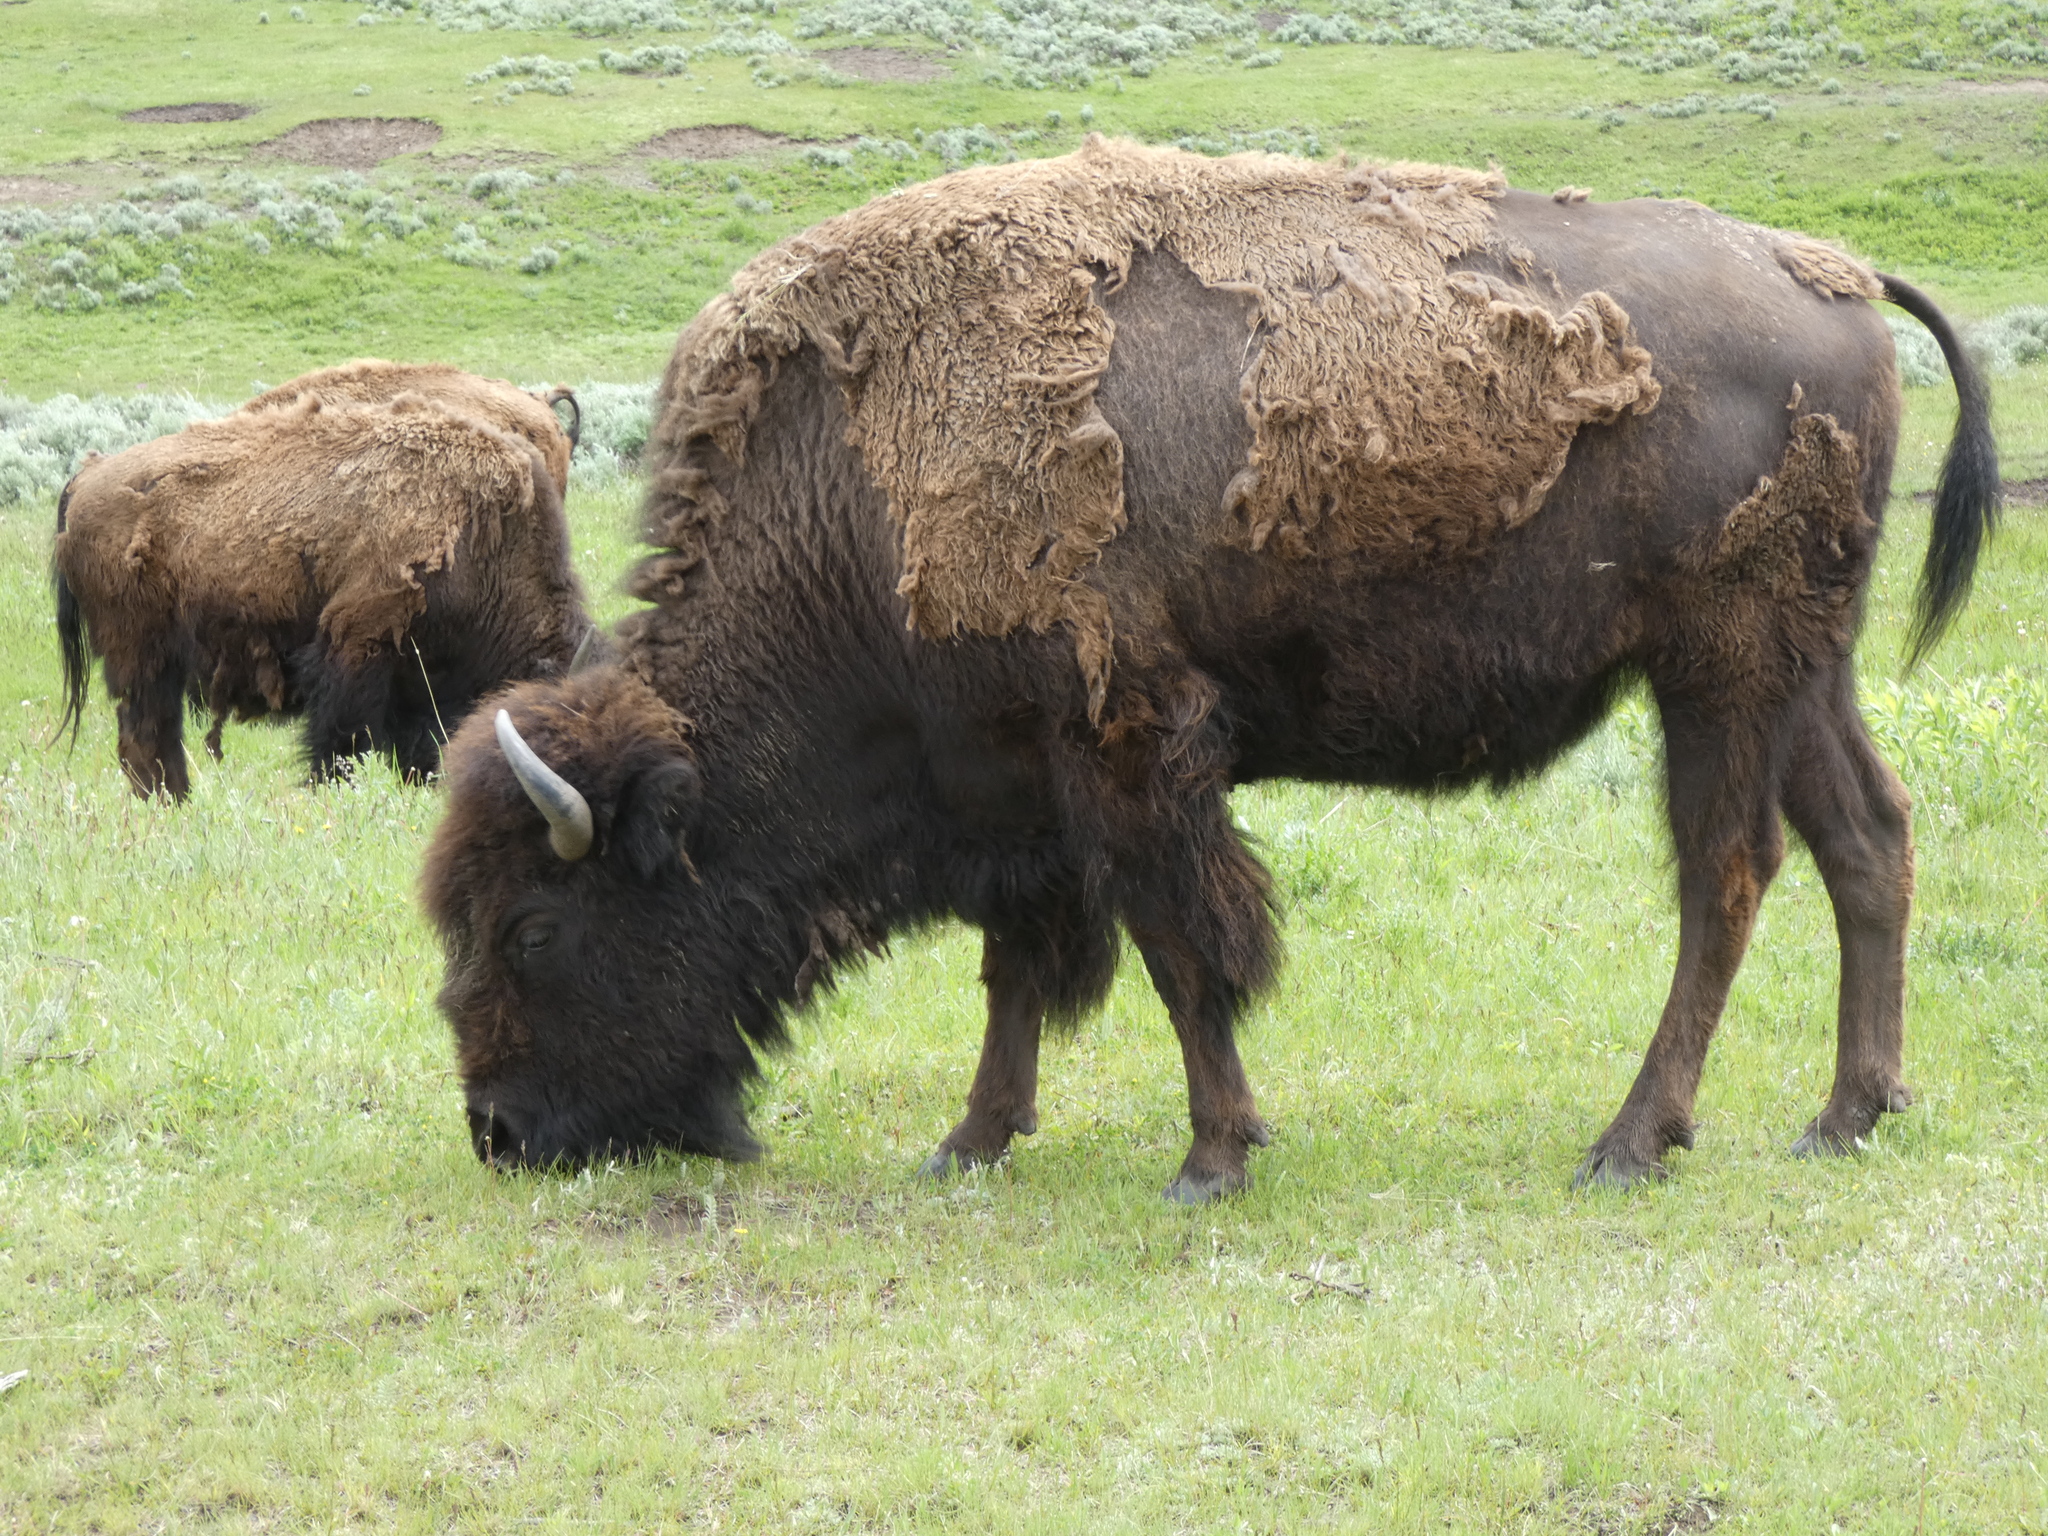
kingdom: Animalia
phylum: Chordata
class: Mammalia
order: Artiodactyla
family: Bovidae
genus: Bison
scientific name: Bison bison
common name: American bison
